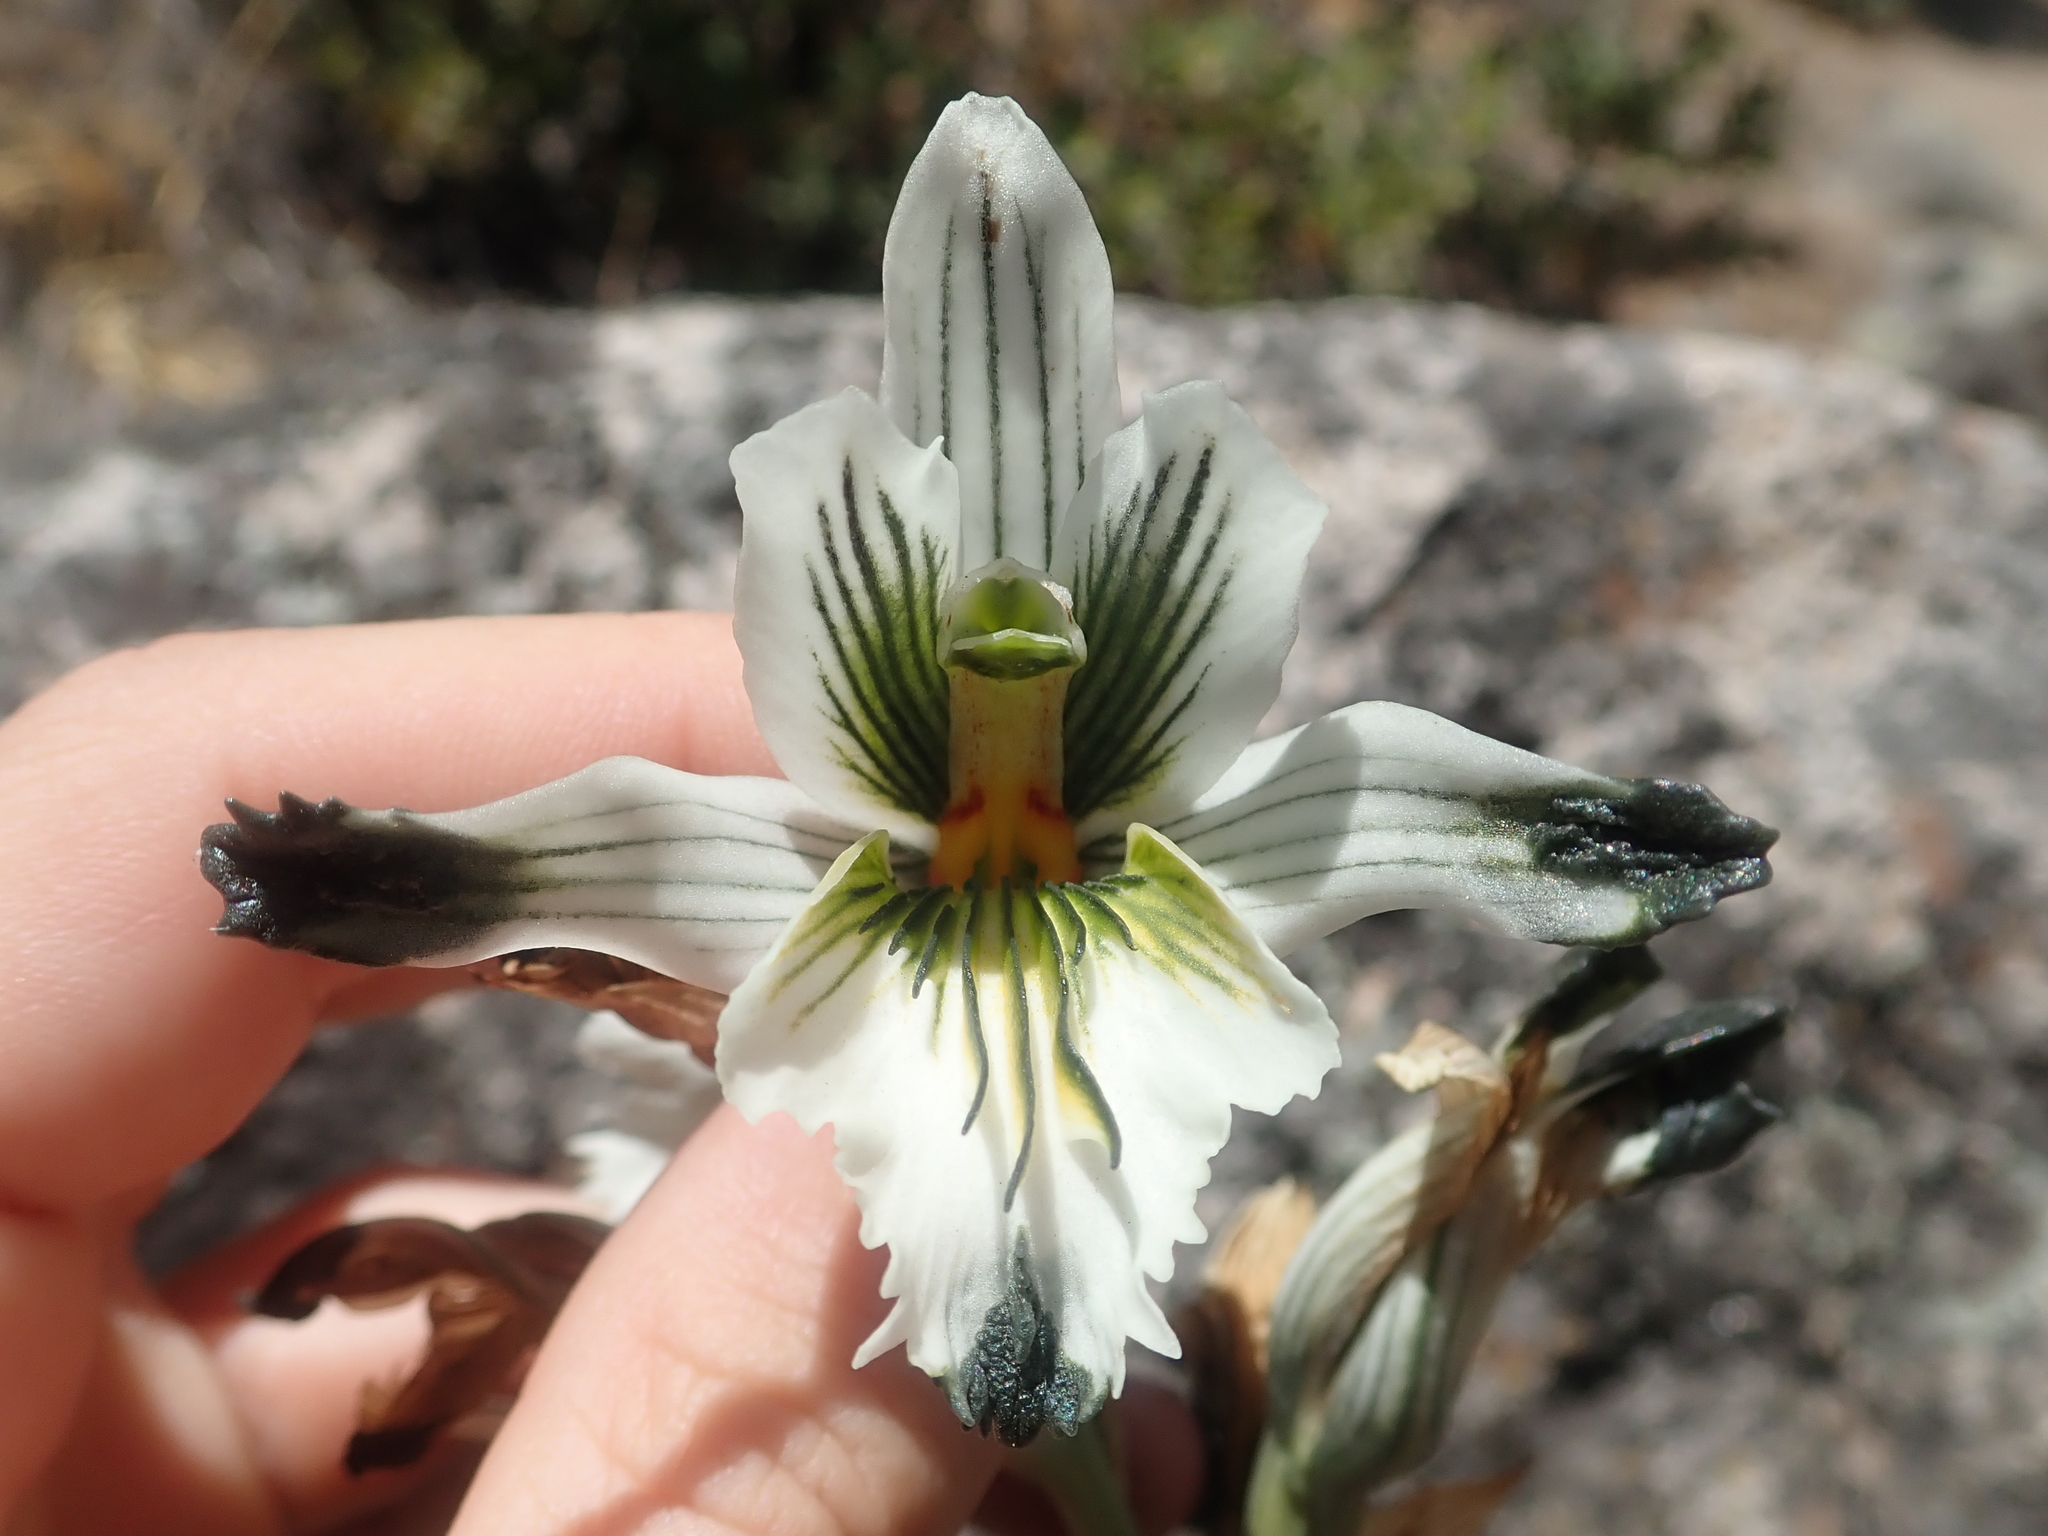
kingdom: Plantae
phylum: Tracheophyta
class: Liliopsida
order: Asparagales
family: Orchidaceae
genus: Chloraea
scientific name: Chloraea bletioides
